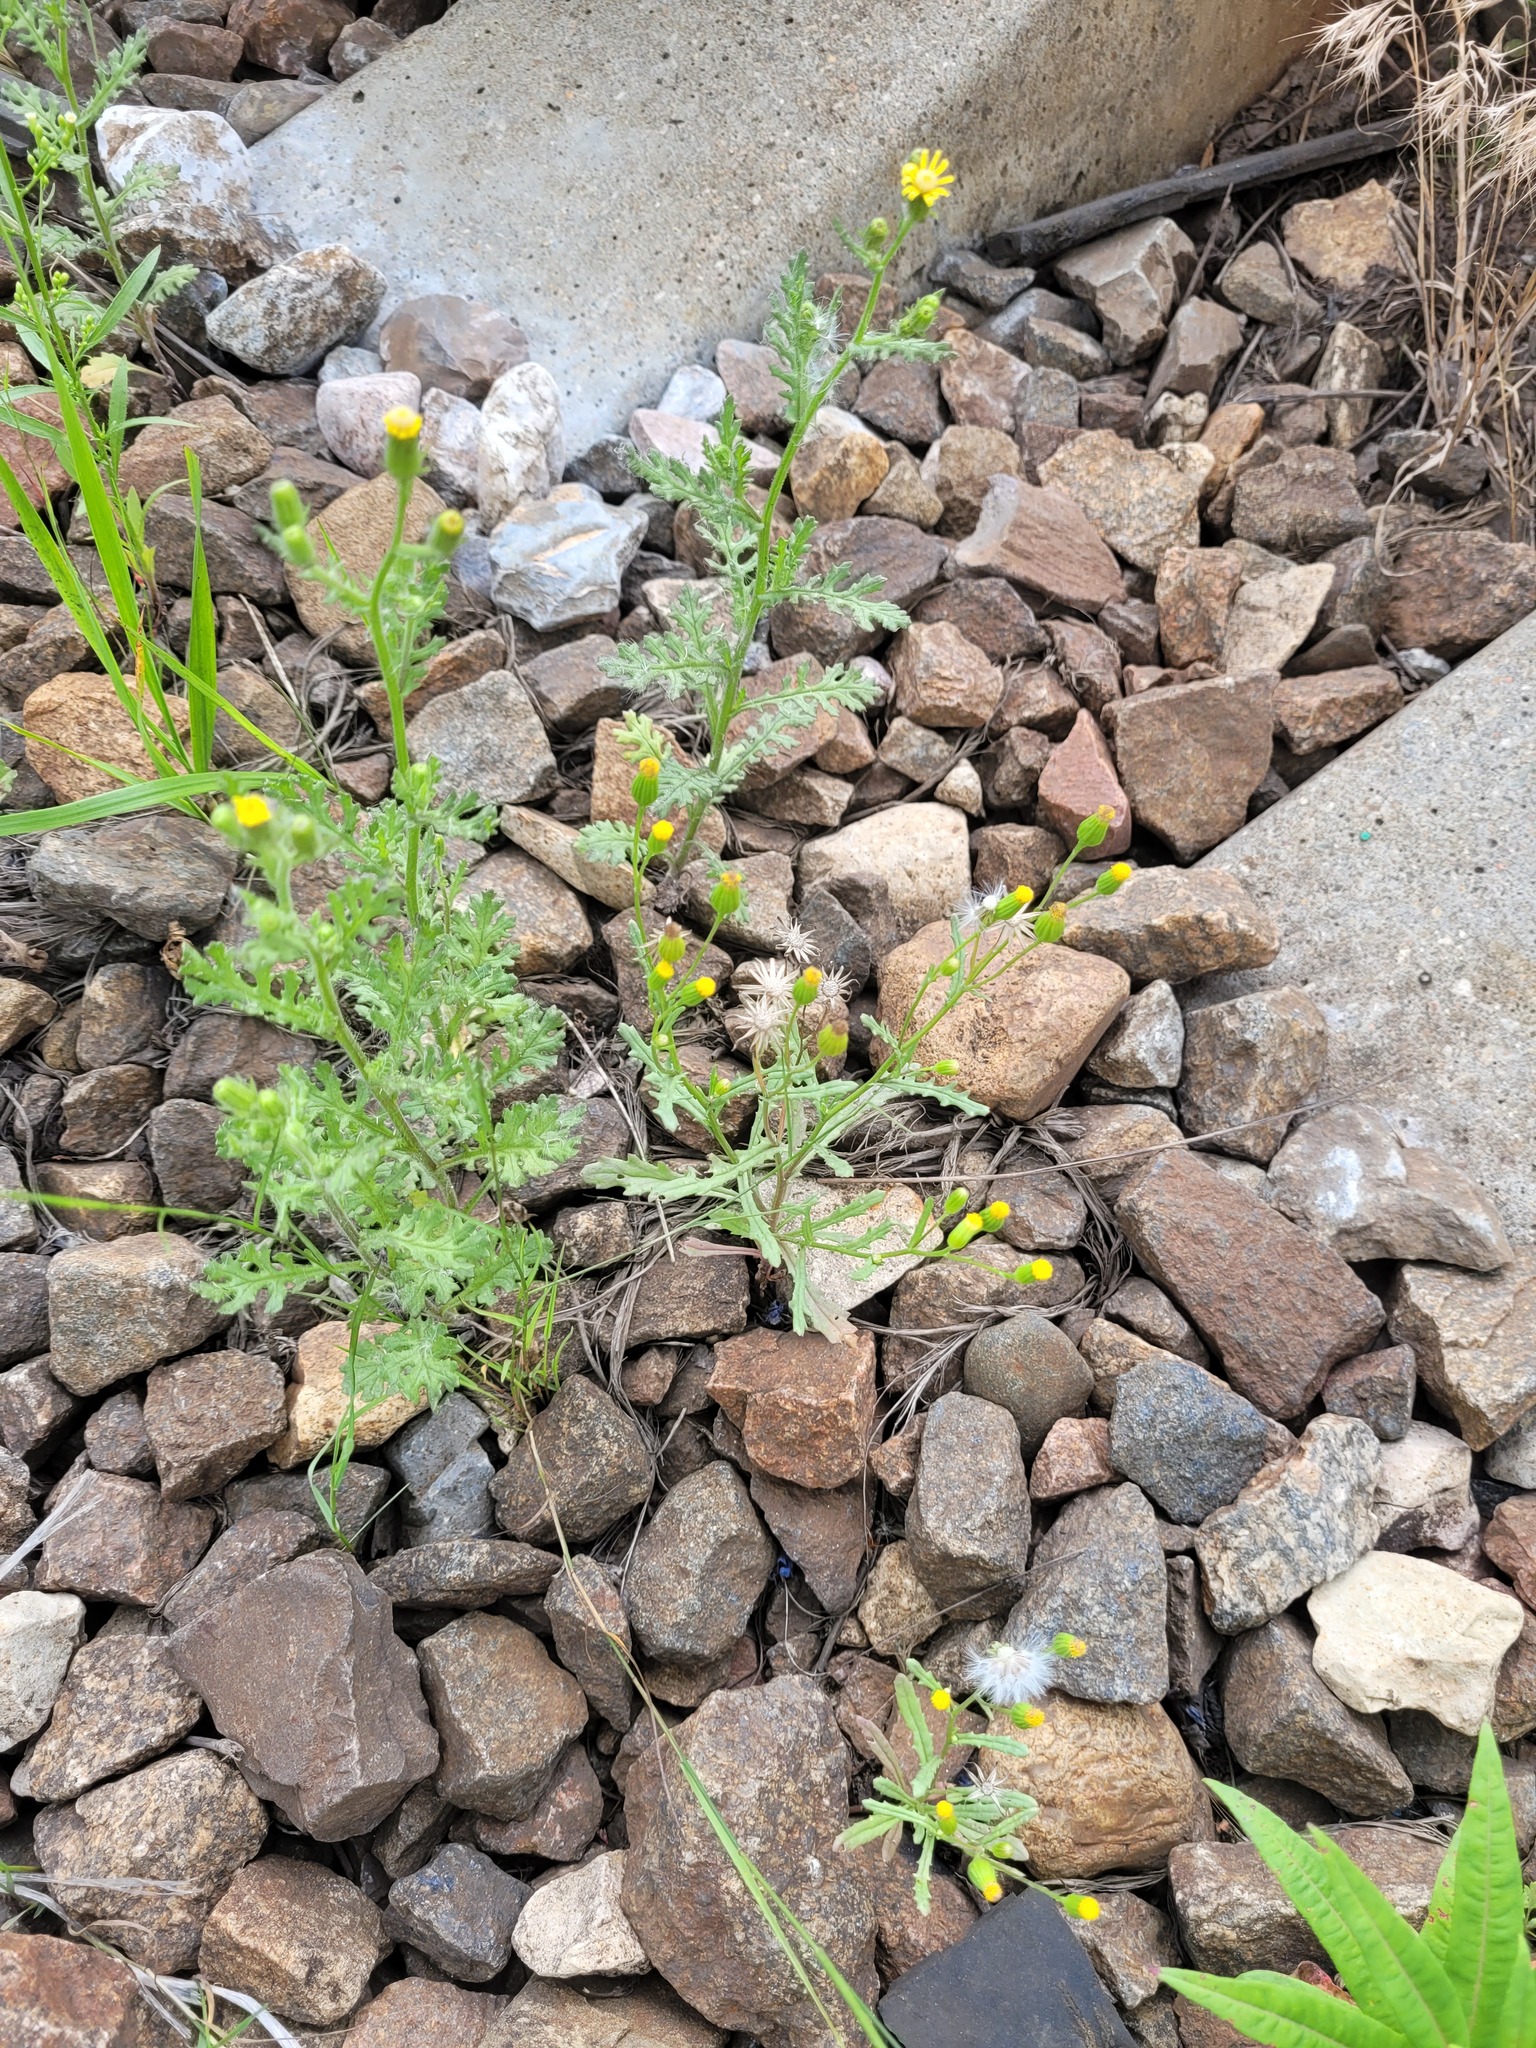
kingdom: Plantae
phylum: Tracheophyta
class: Magnoliopsida
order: Asterales
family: Asteraceae
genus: Senecio
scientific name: Senecio dubitabilis
